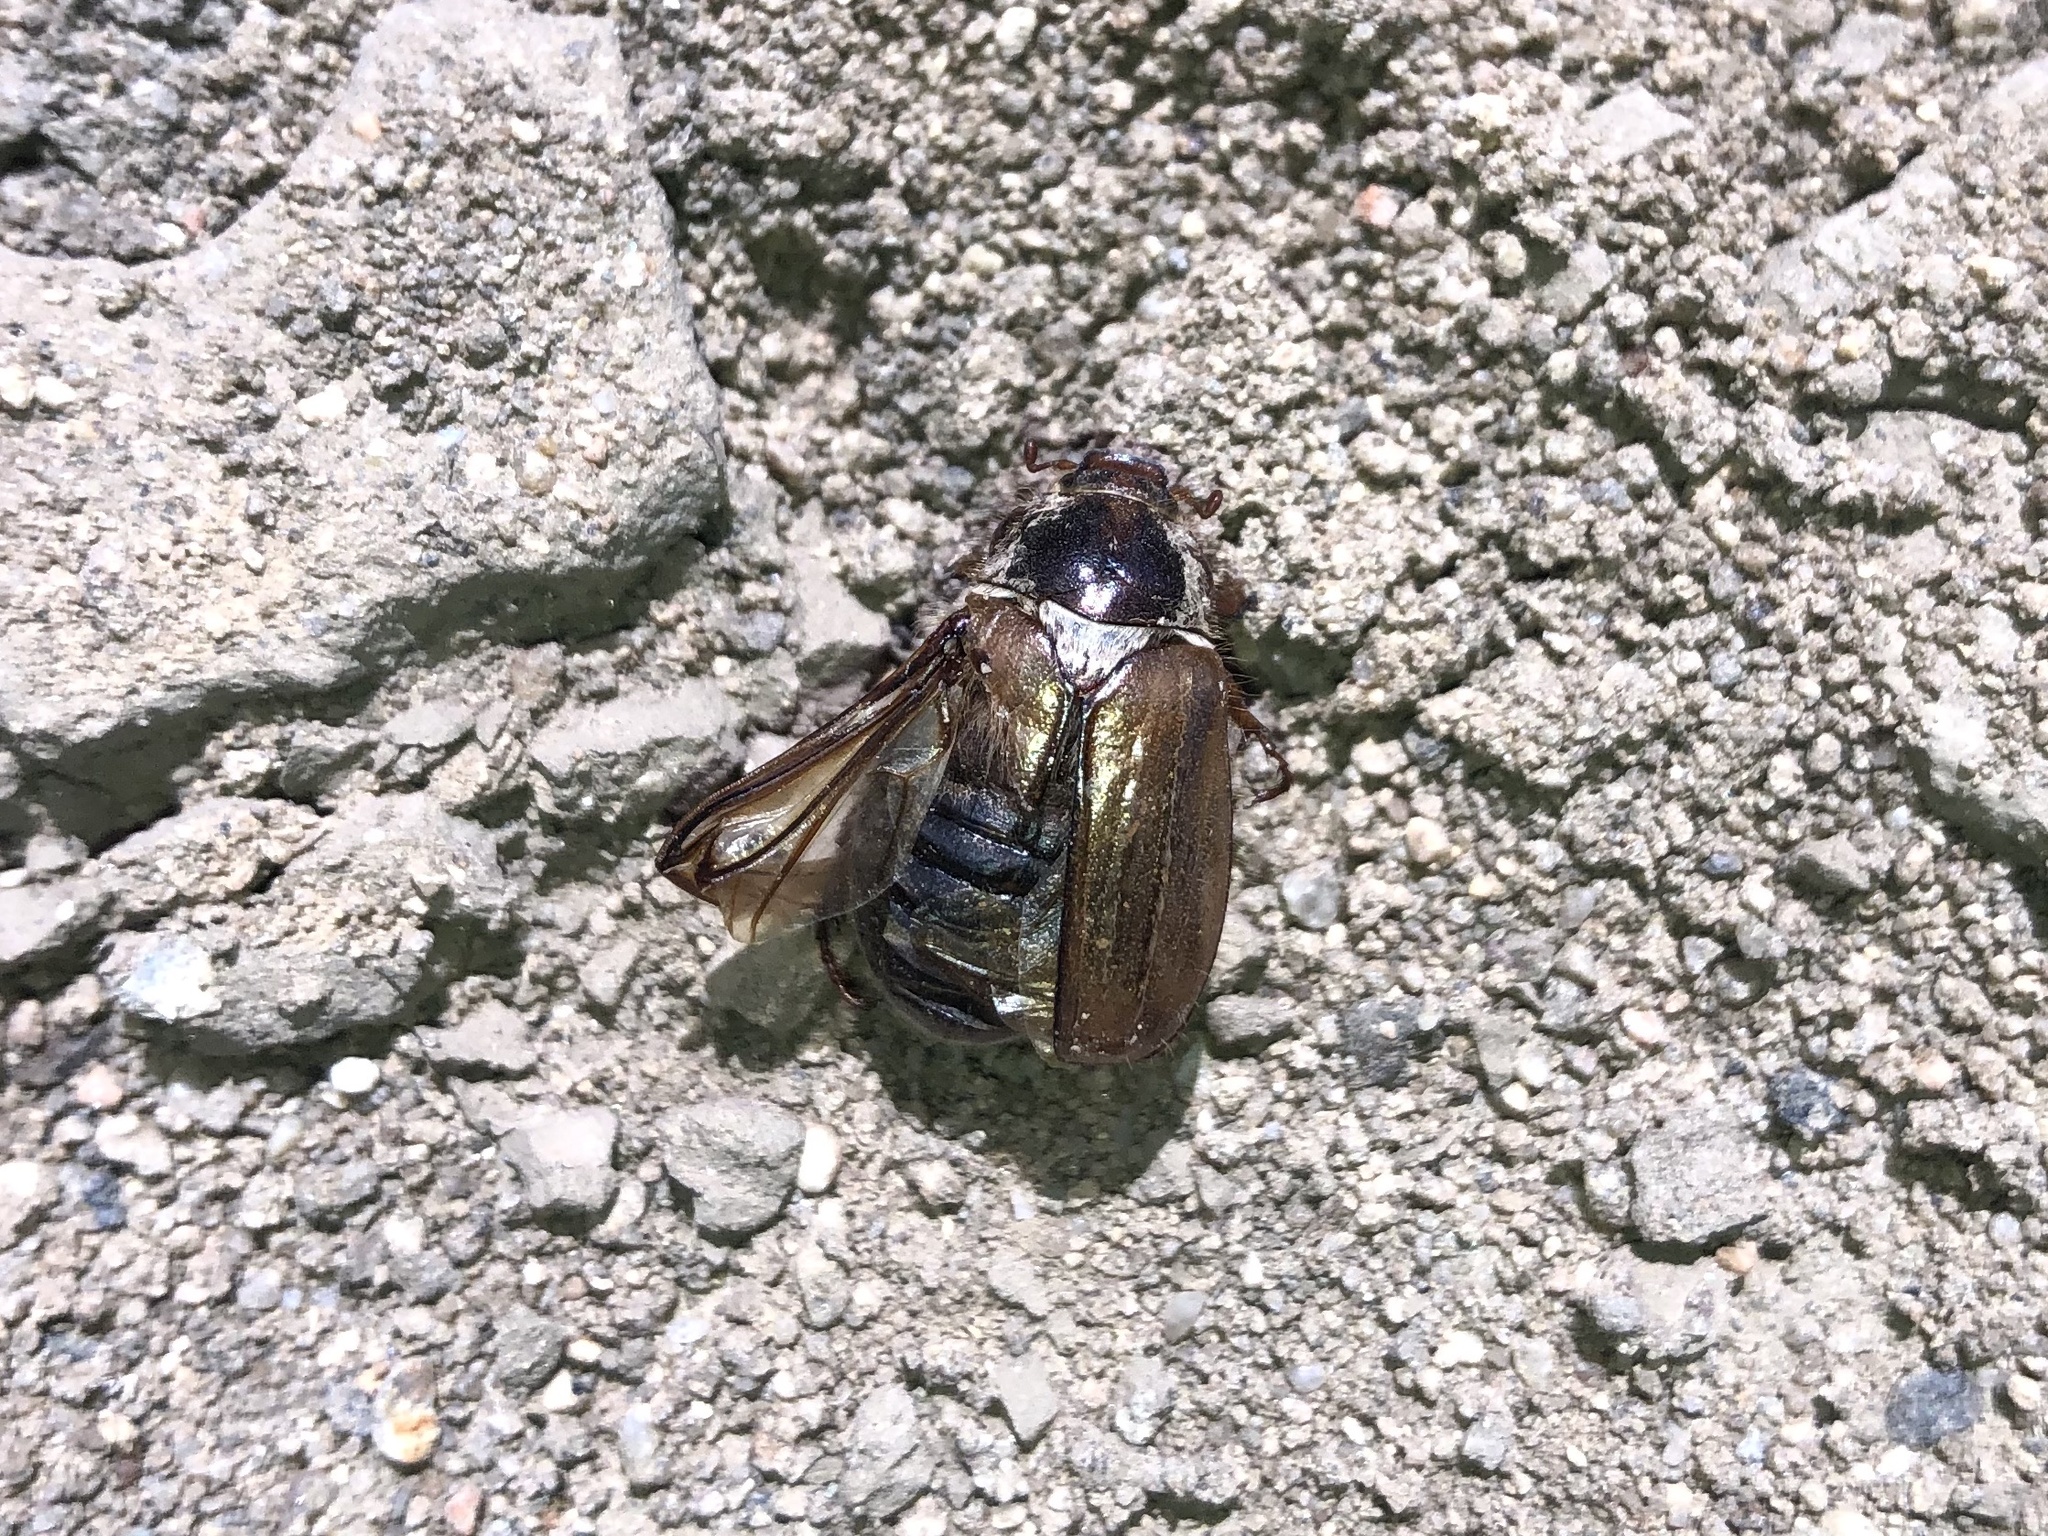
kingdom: Animalia
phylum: Arthropoda
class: Insecta
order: Coleoptera
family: Scarabaeidae
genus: Amphimallon
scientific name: Amphimallon solstitiale
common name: Summer chafer
